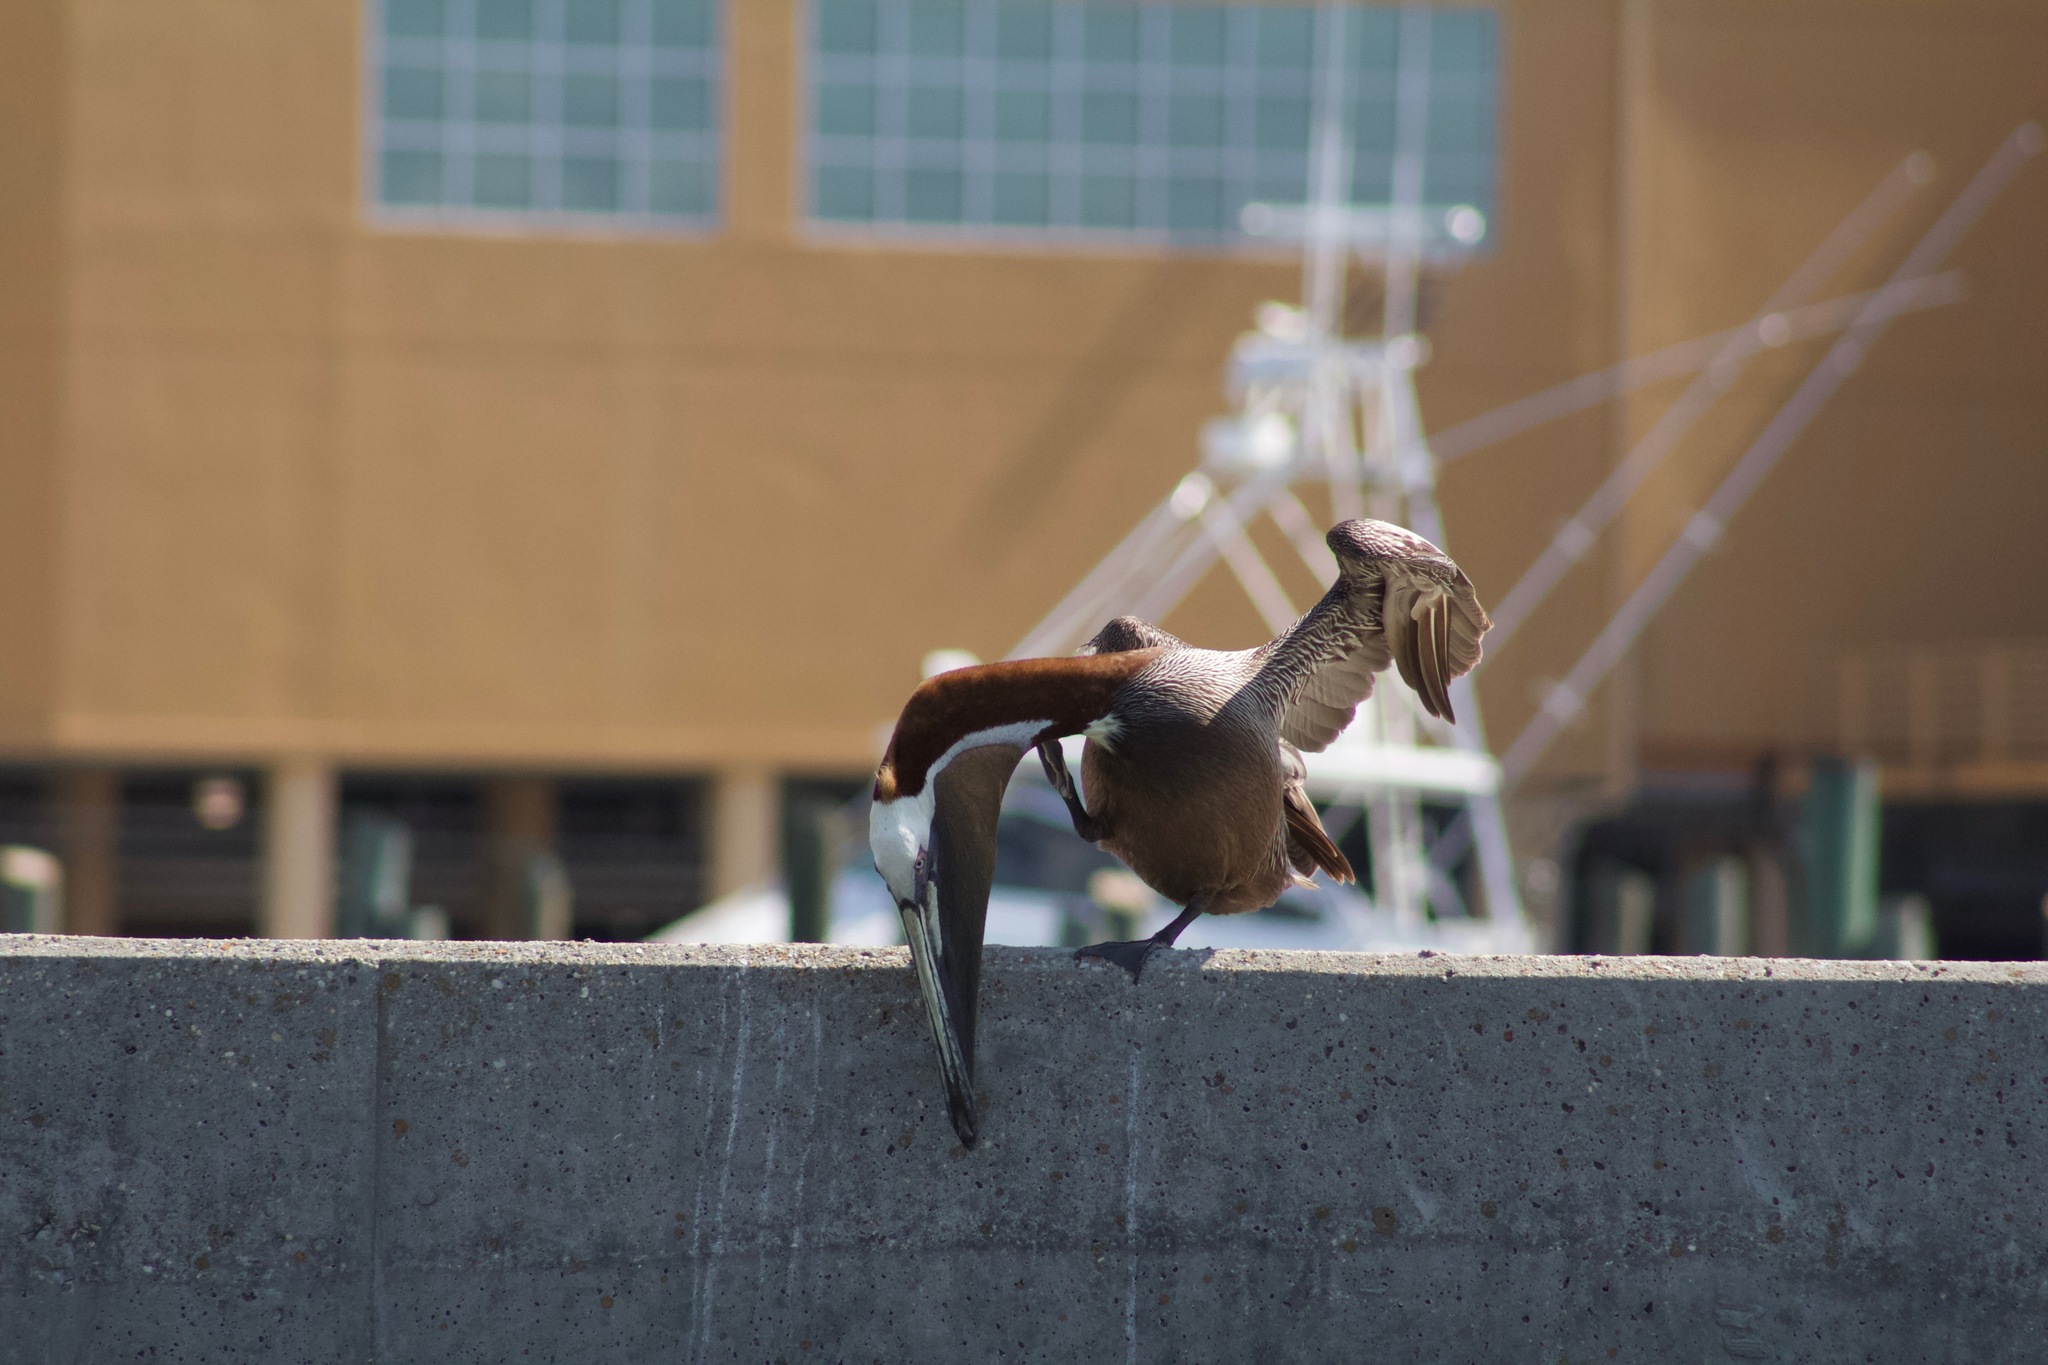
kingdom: Animalia
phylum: Chordata
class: Aves
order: Pelecaniformes
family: Pelecanidae
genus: Pelecanus
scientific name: Pelecanus occidentalis
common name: Brown pelican
